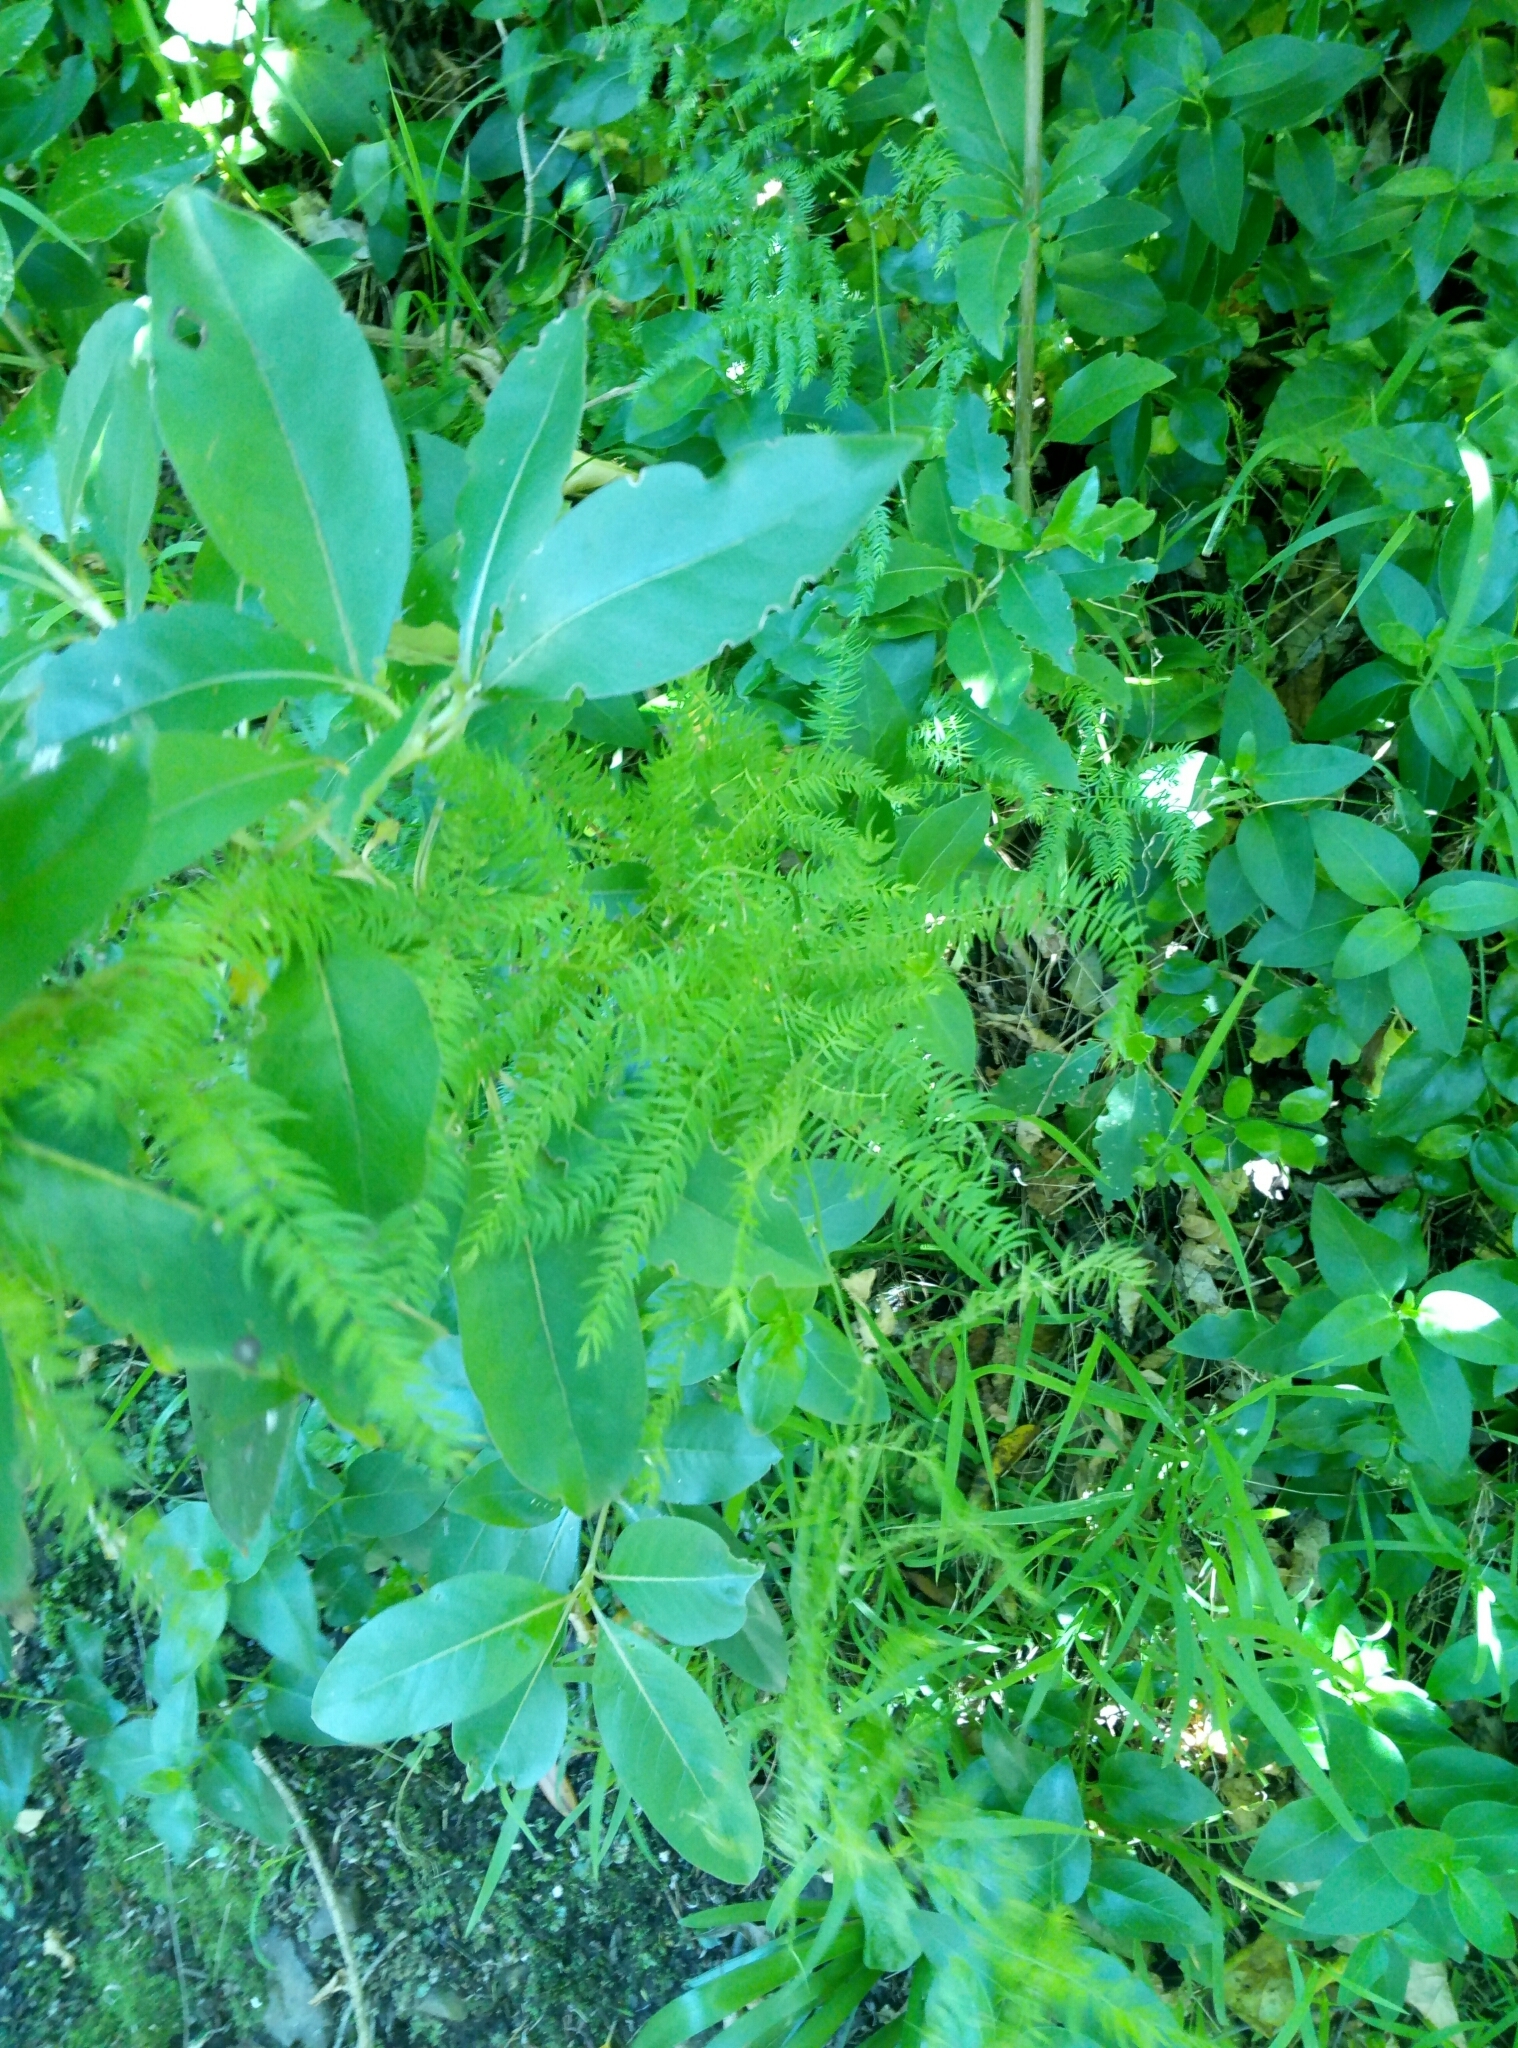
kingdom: Plantae
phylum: Tracheophyta
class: Liliopsida
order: Asparagales
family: Asparagaceae
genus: Asparagus
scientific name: Asparagus scandens
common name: Asparagus-fern
